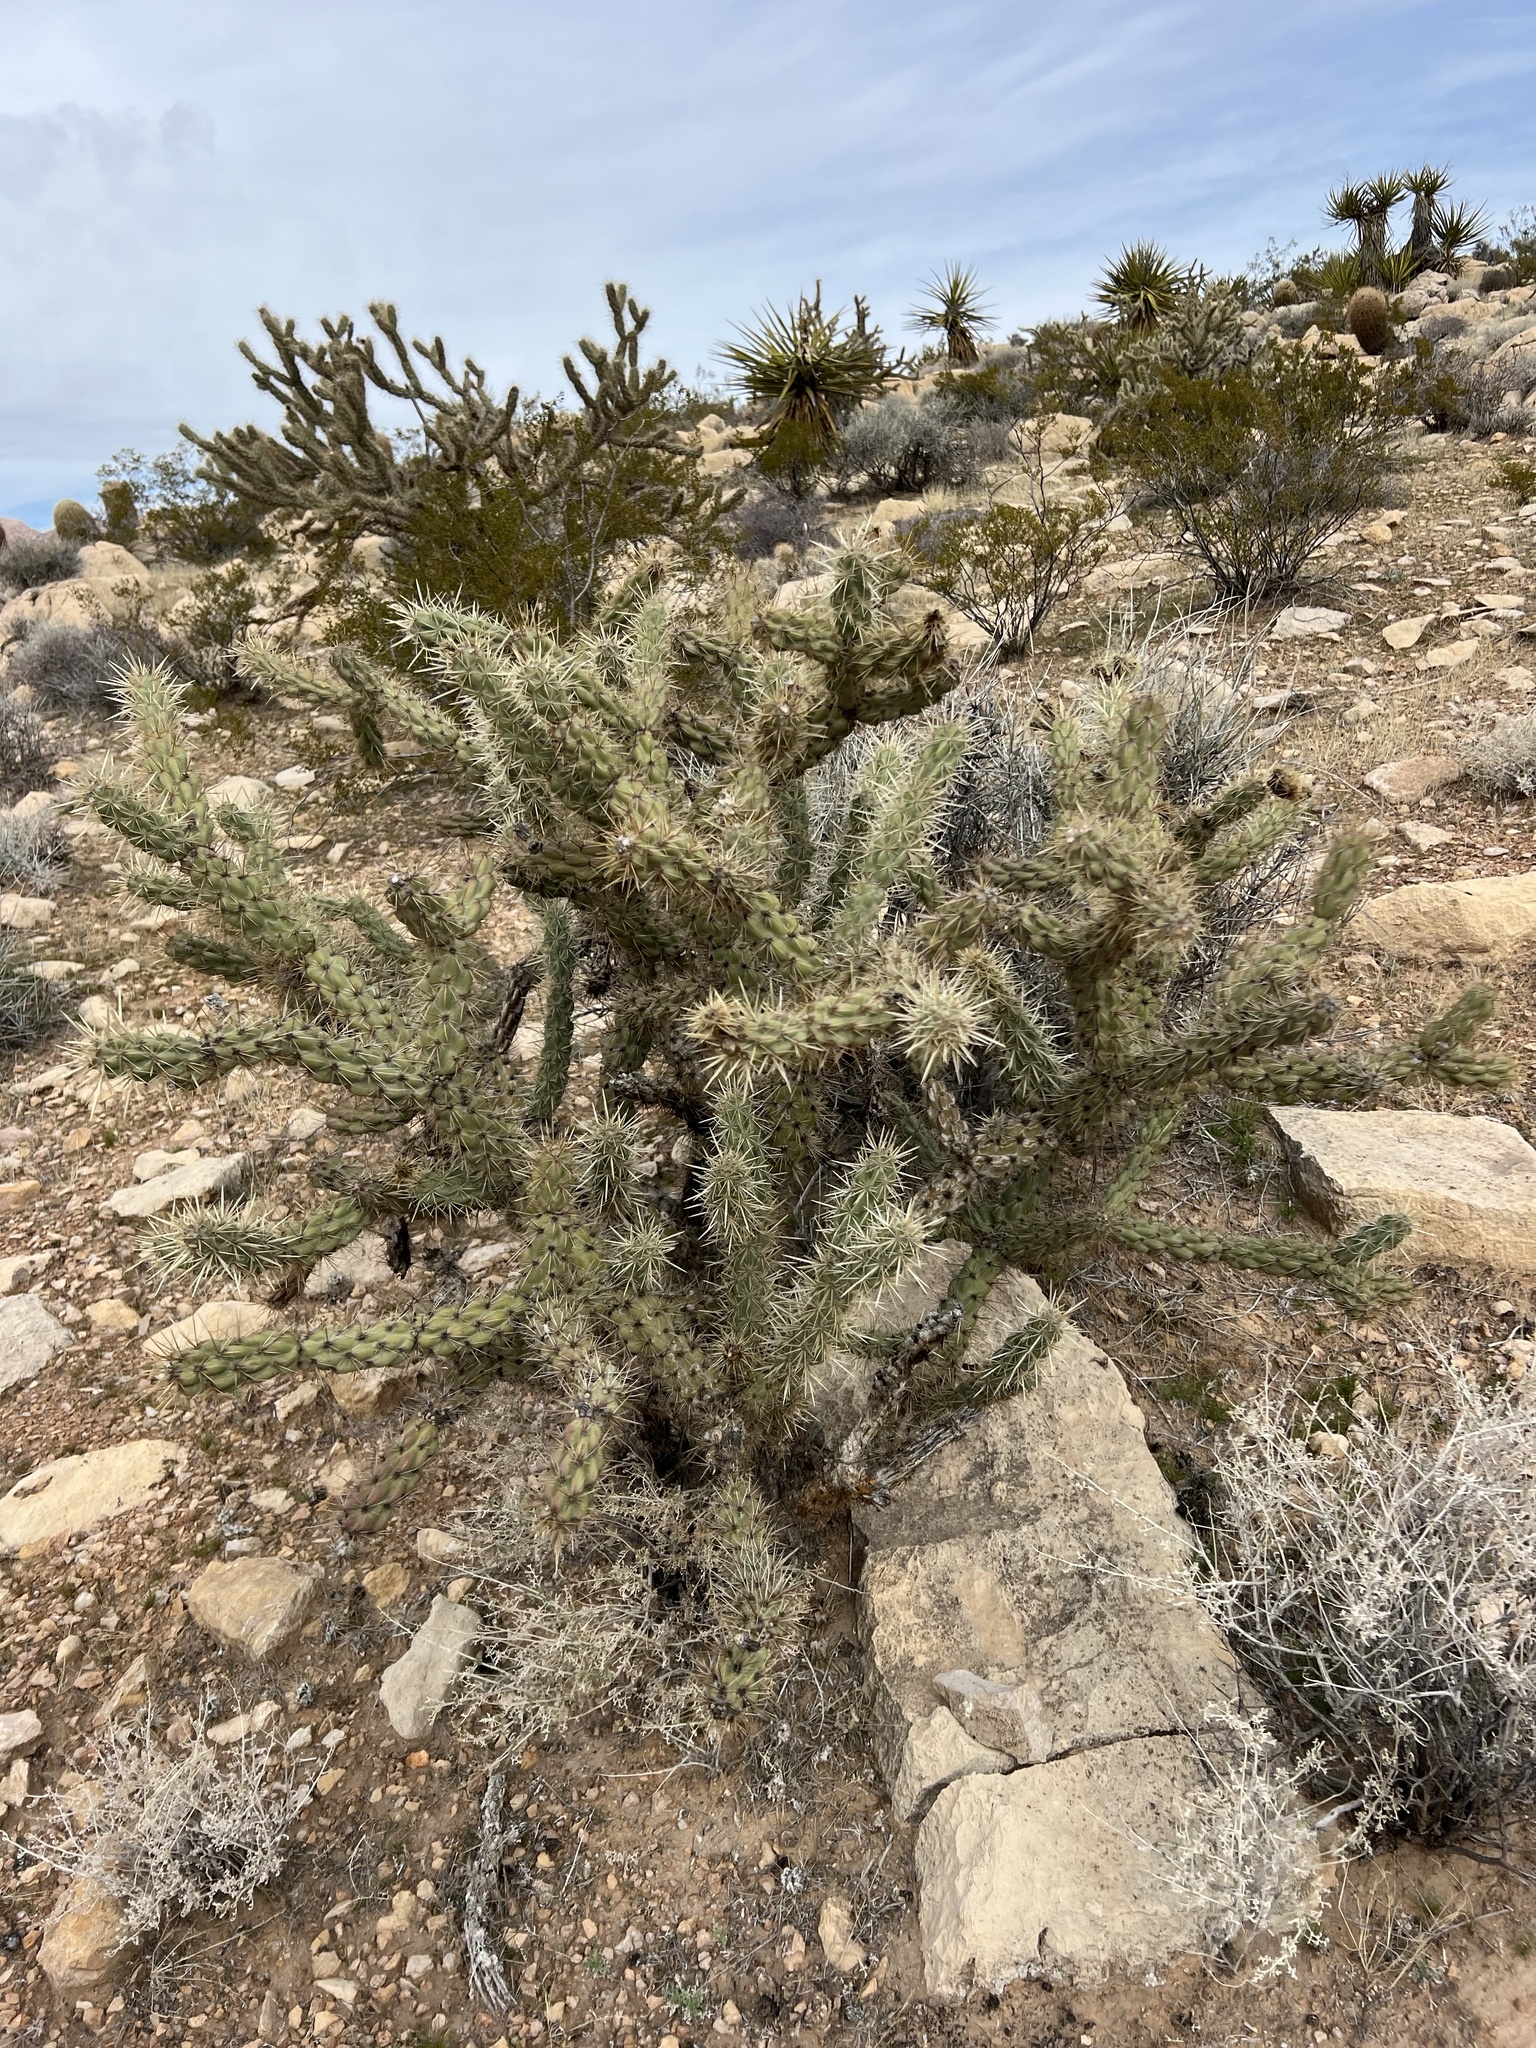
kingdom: Plantae
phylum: Tracheophyta
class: Magnoliopsida
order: Caryophyllales
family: Cactaceae
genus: Cylindropuntia
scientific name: Cylindropuntia acanthocarpa
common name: Buckhorn cholla
